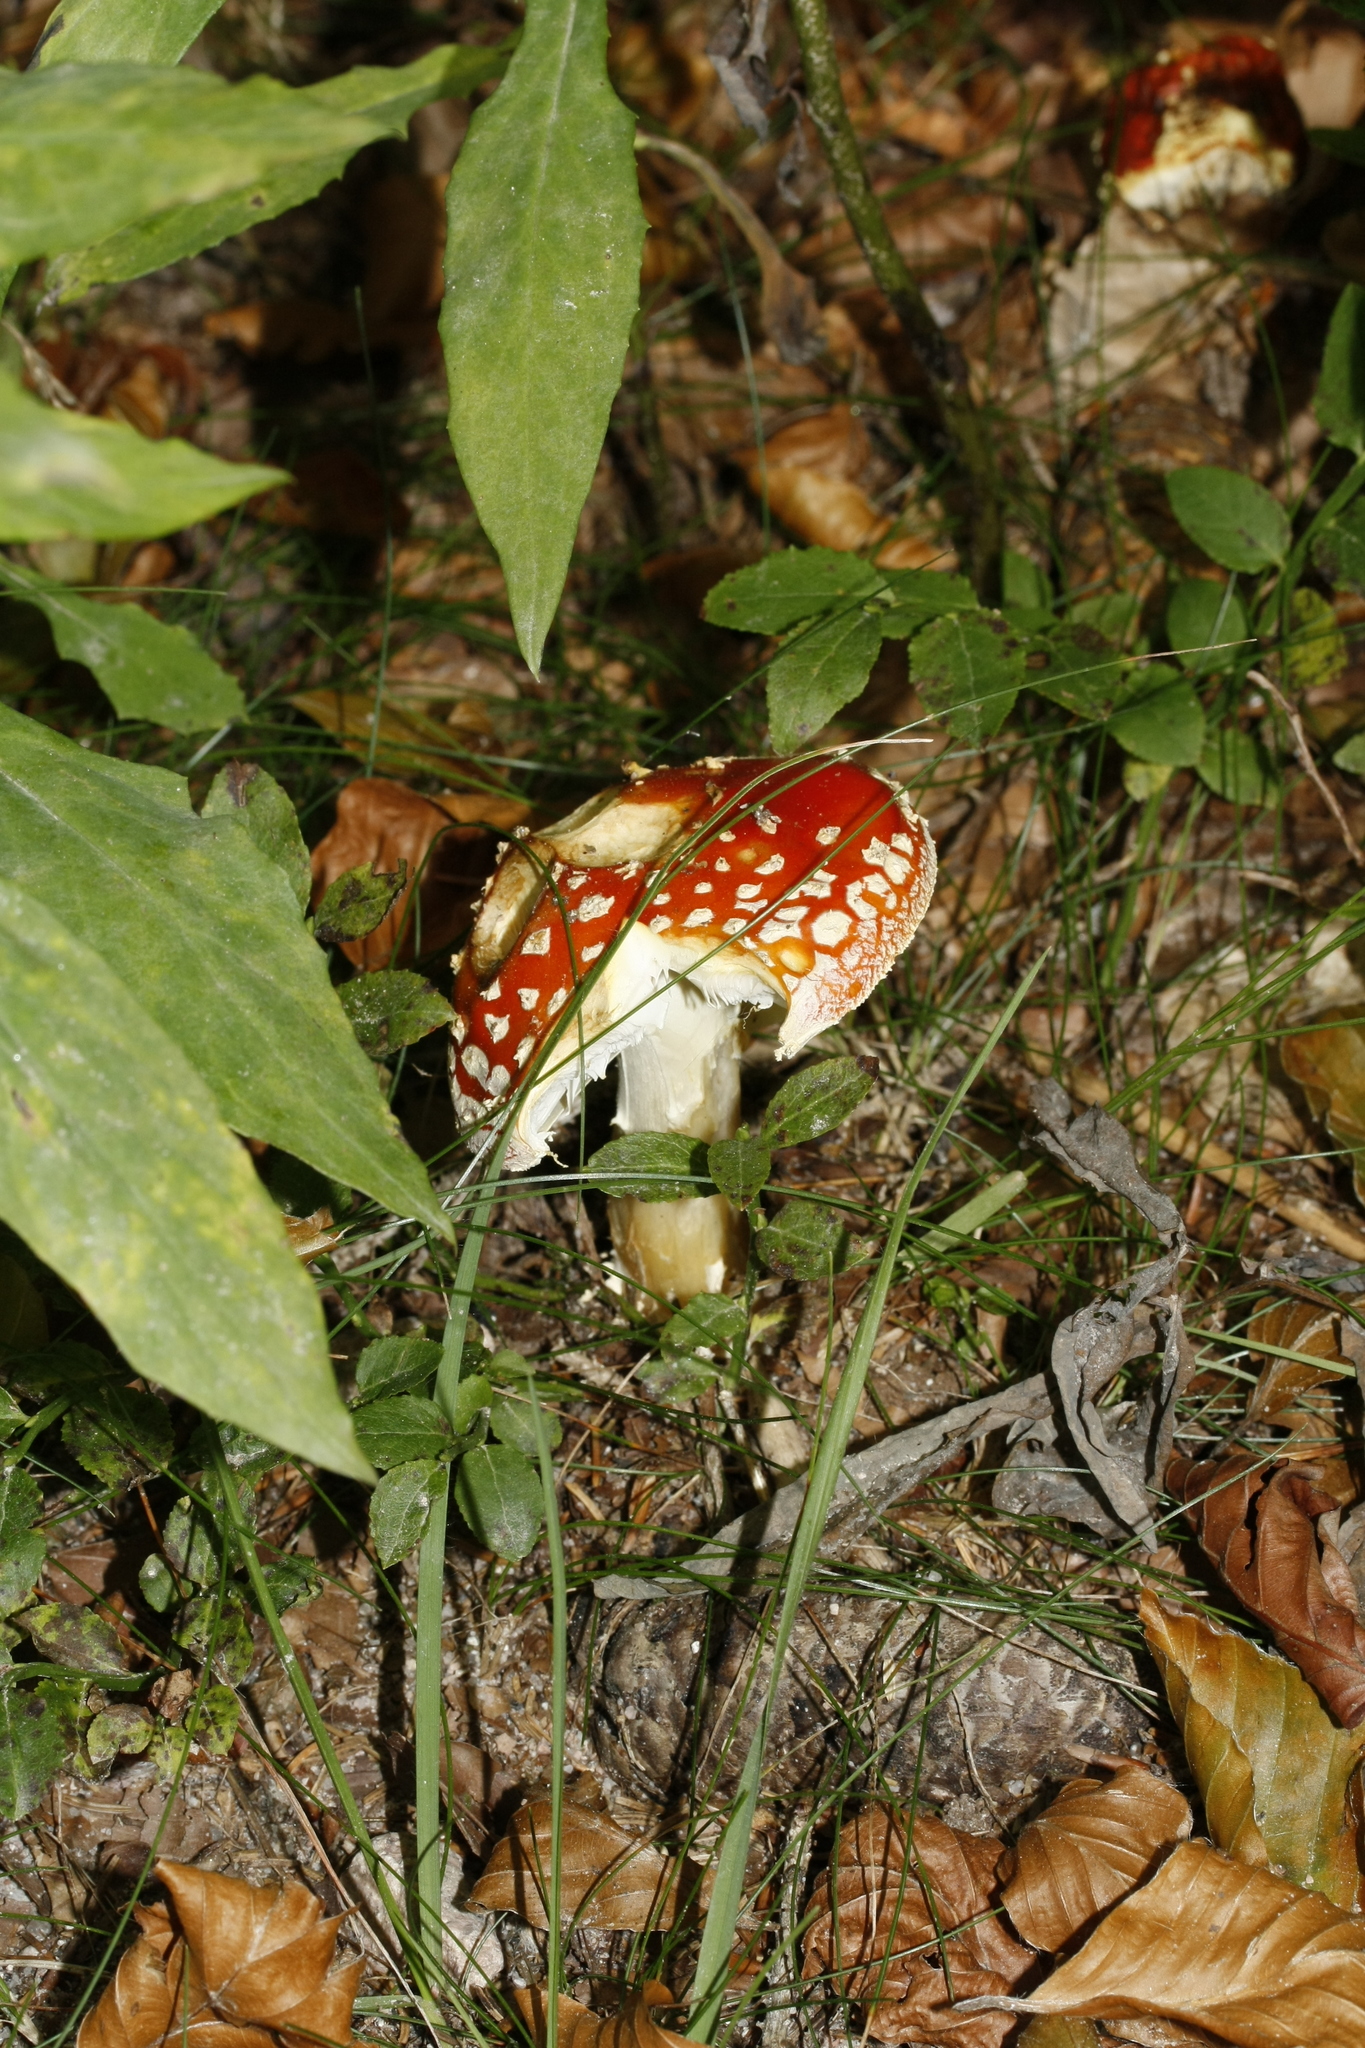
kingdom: Fungi
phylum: Basidiomycota
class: Agaricomycetes
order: Agaricales
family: Amanitaceae
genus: Amanita
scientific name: Amanita muscaria
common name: Fly agaric
